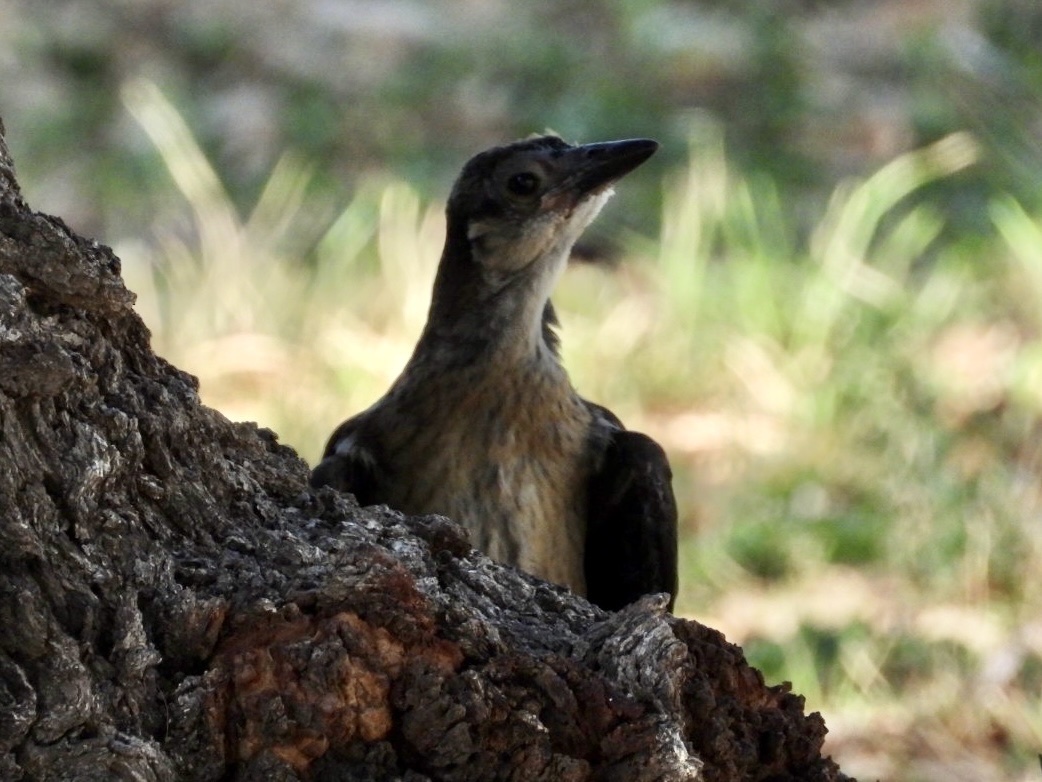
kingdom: Animalia
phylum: Chordata
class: Aves
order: Passeriformes
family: Icteridae
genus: Quiscalus
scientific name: Quiscalus mexicanus
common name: Great-tailed grackle
